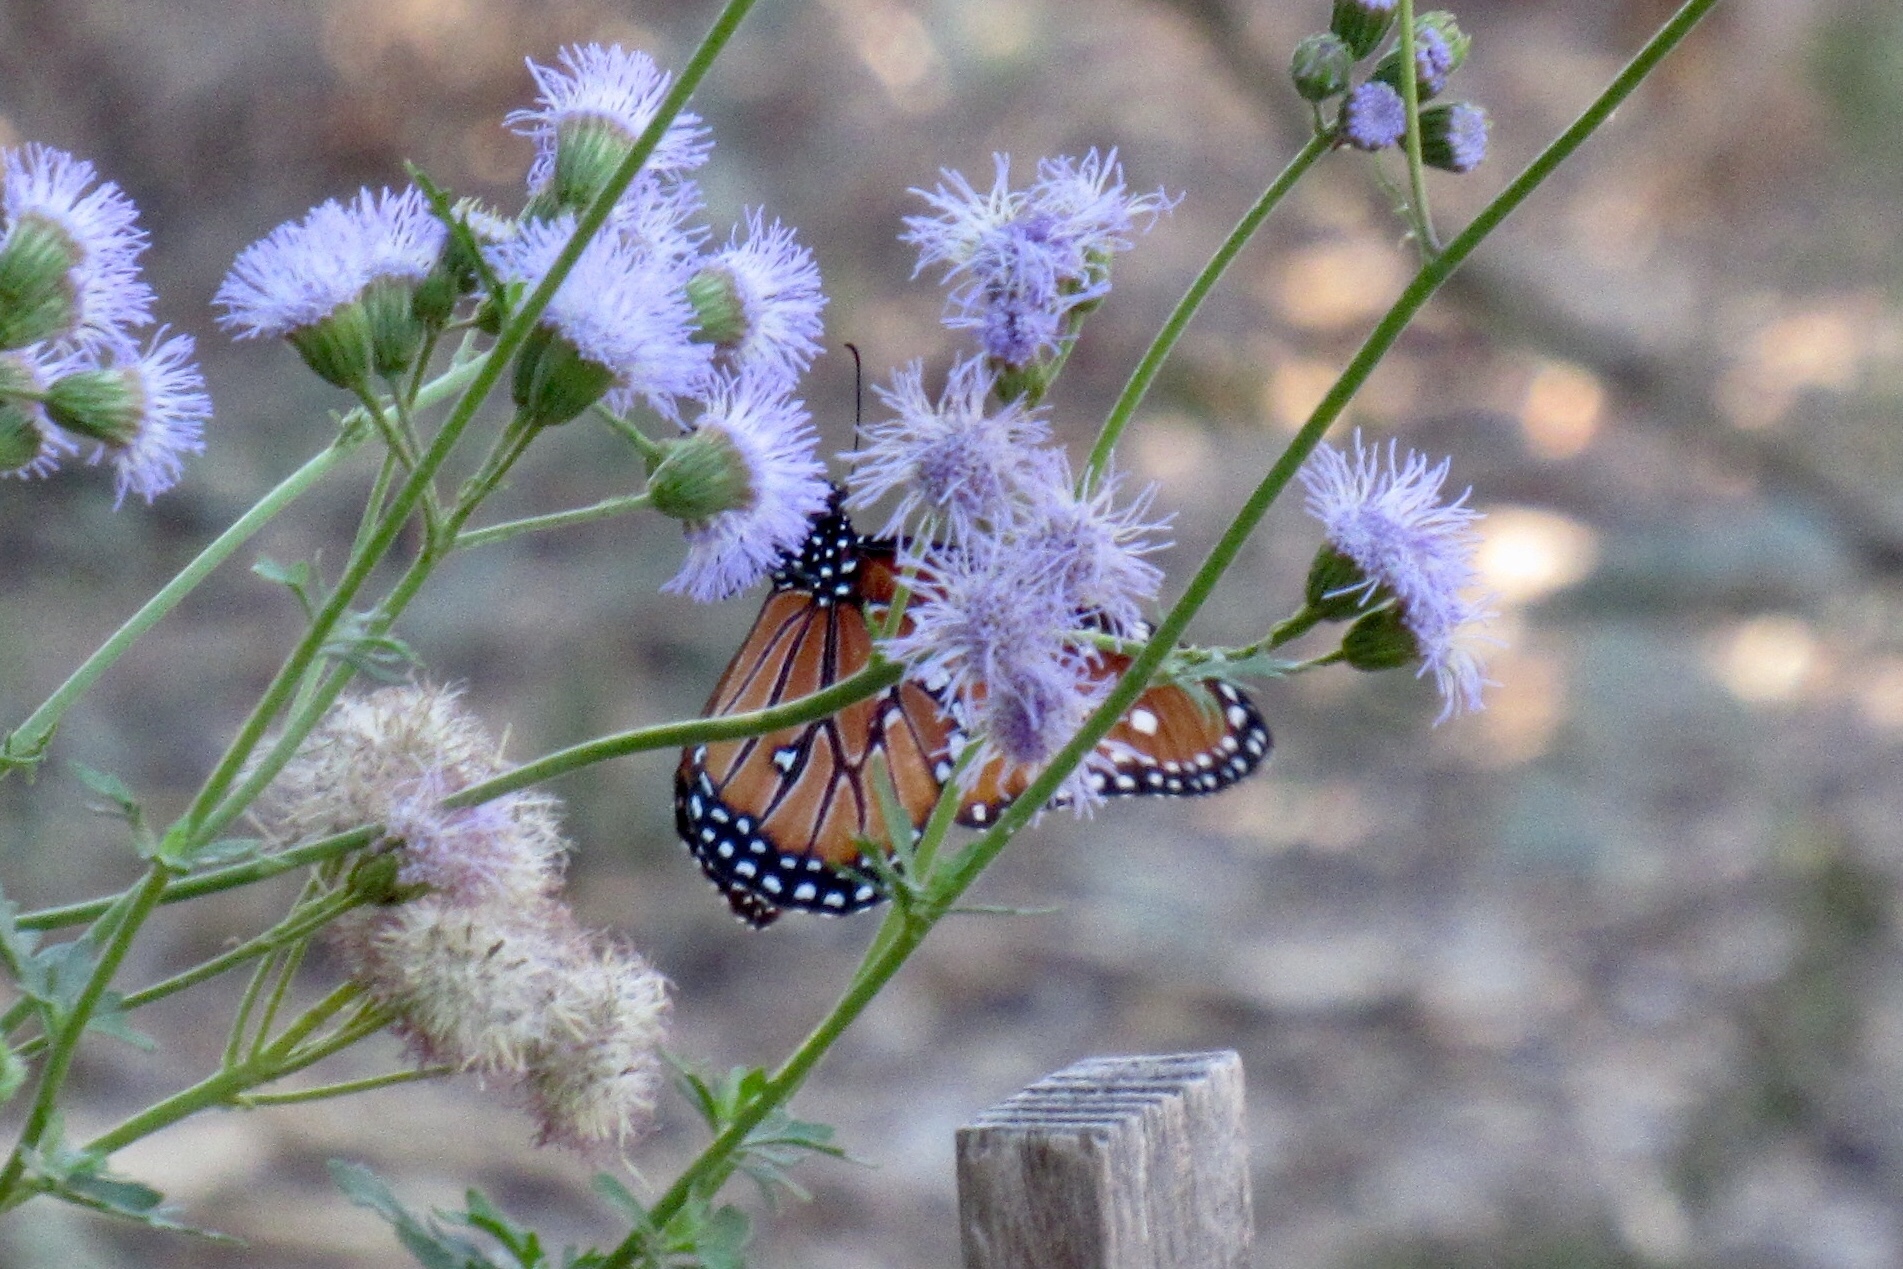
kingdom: Animalia
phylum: Arthropoda
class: Insecta
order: Lepidoptera
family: Nymphalidae
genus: Danaus
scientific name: Danaus gilippus
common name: Queen
